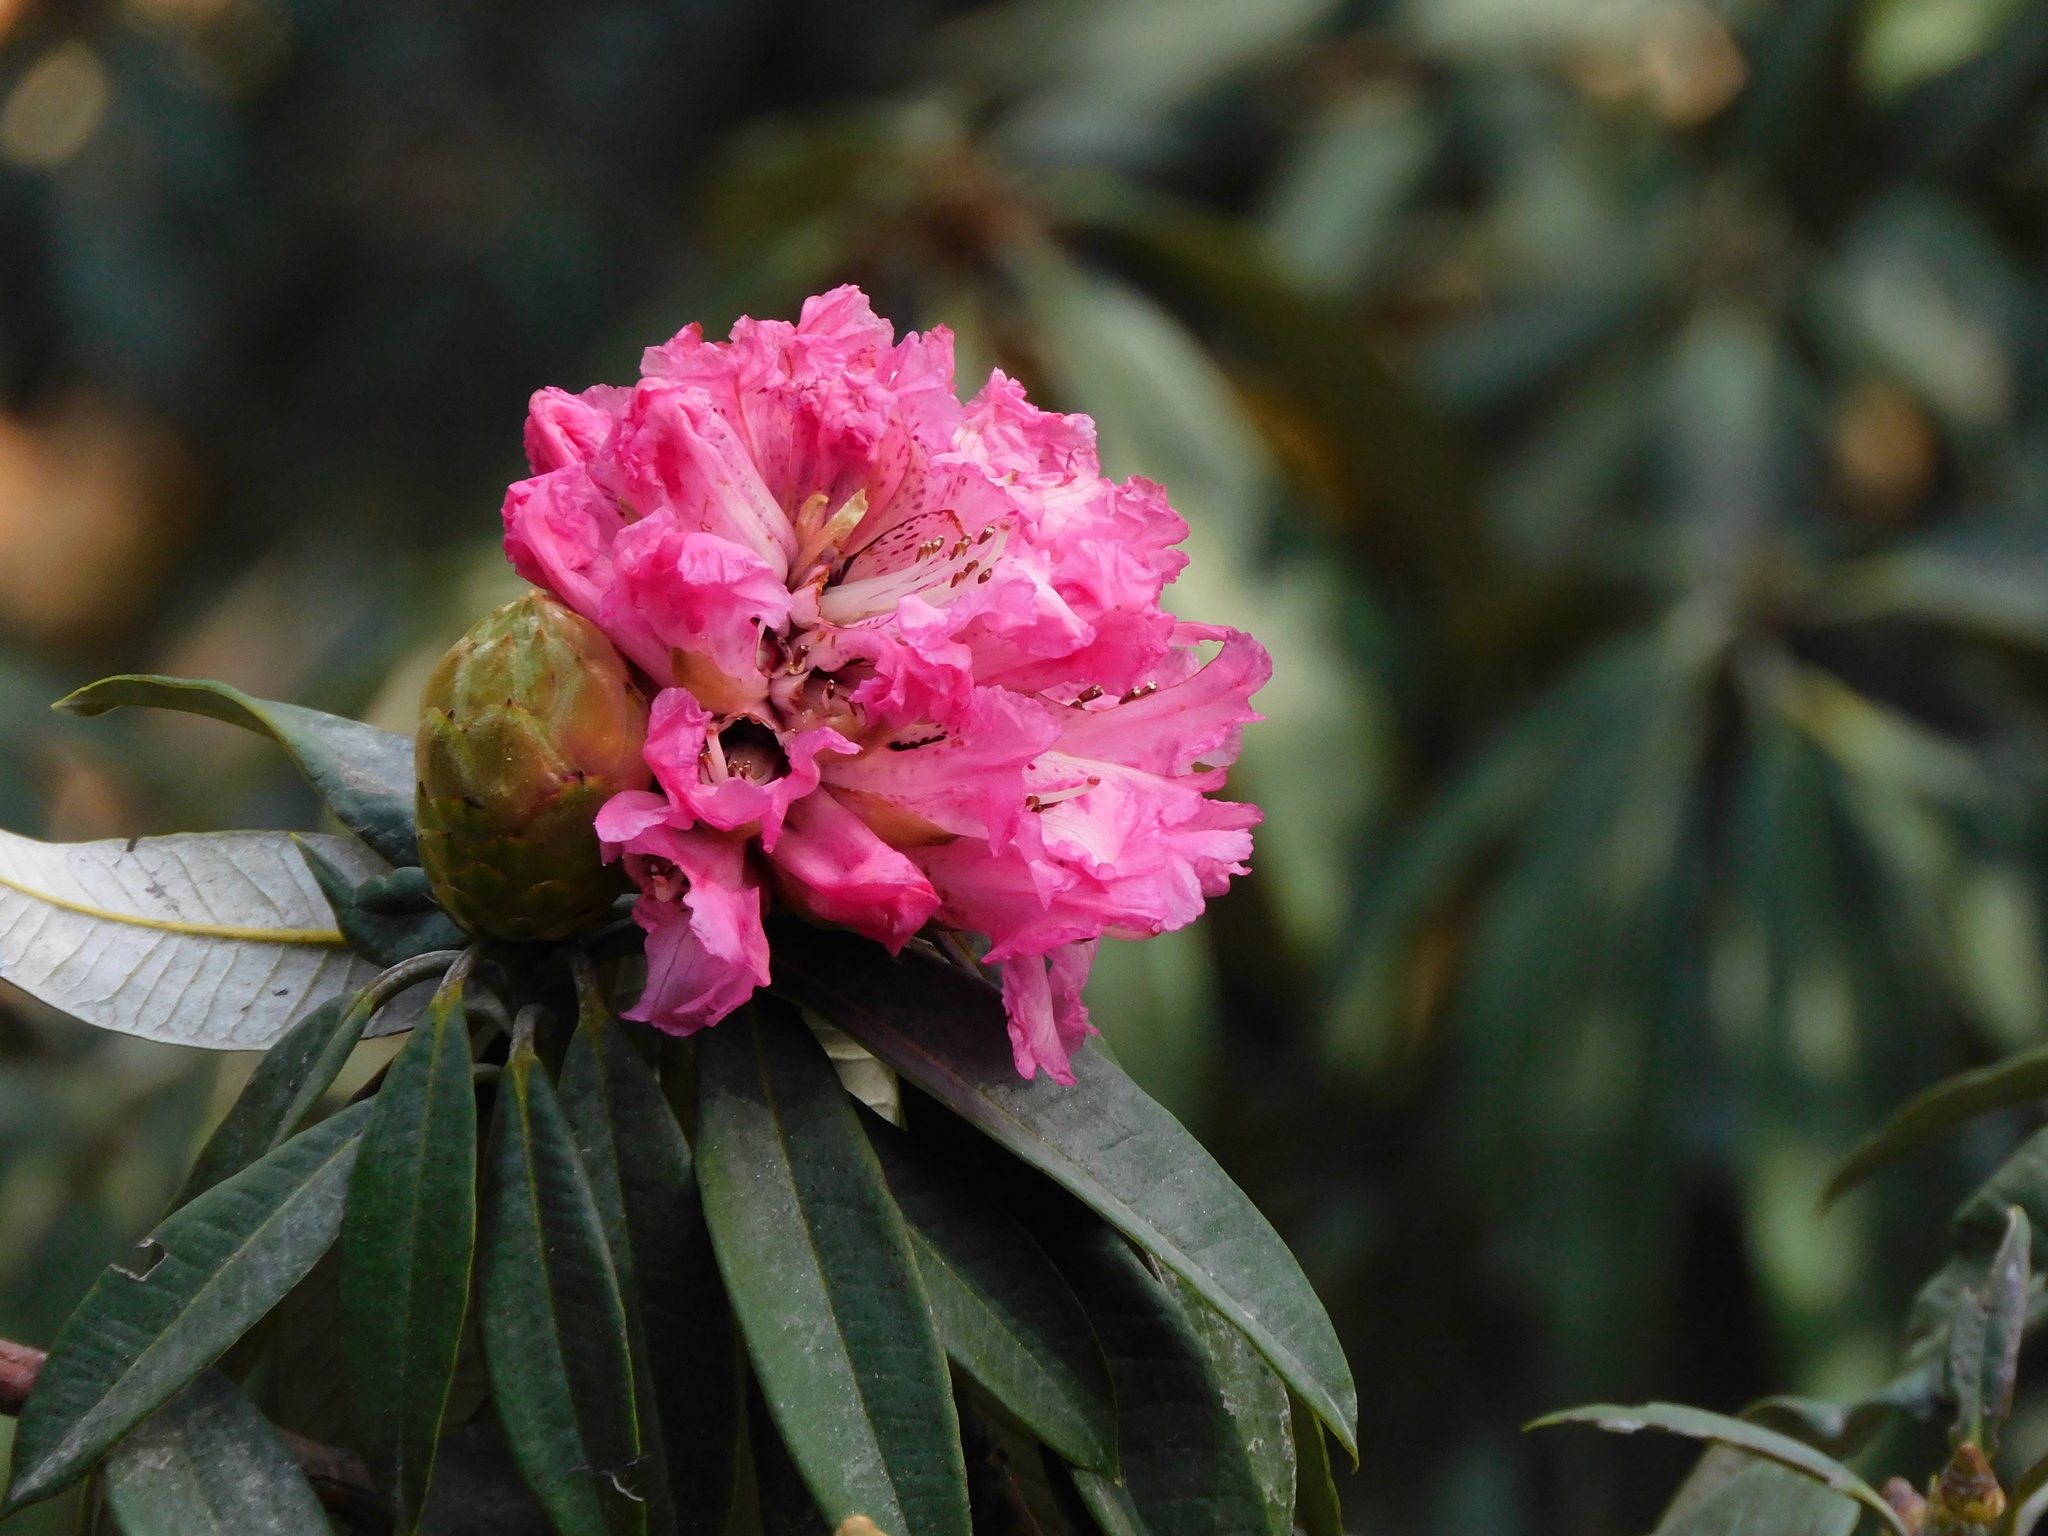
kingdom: Plantae
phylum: Tracheophyta
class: Magnoliopsida
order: Ericales
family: Ericaceae
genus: Rhododendron
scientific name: Rhododendron arboreum
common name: Tree rhododendron
